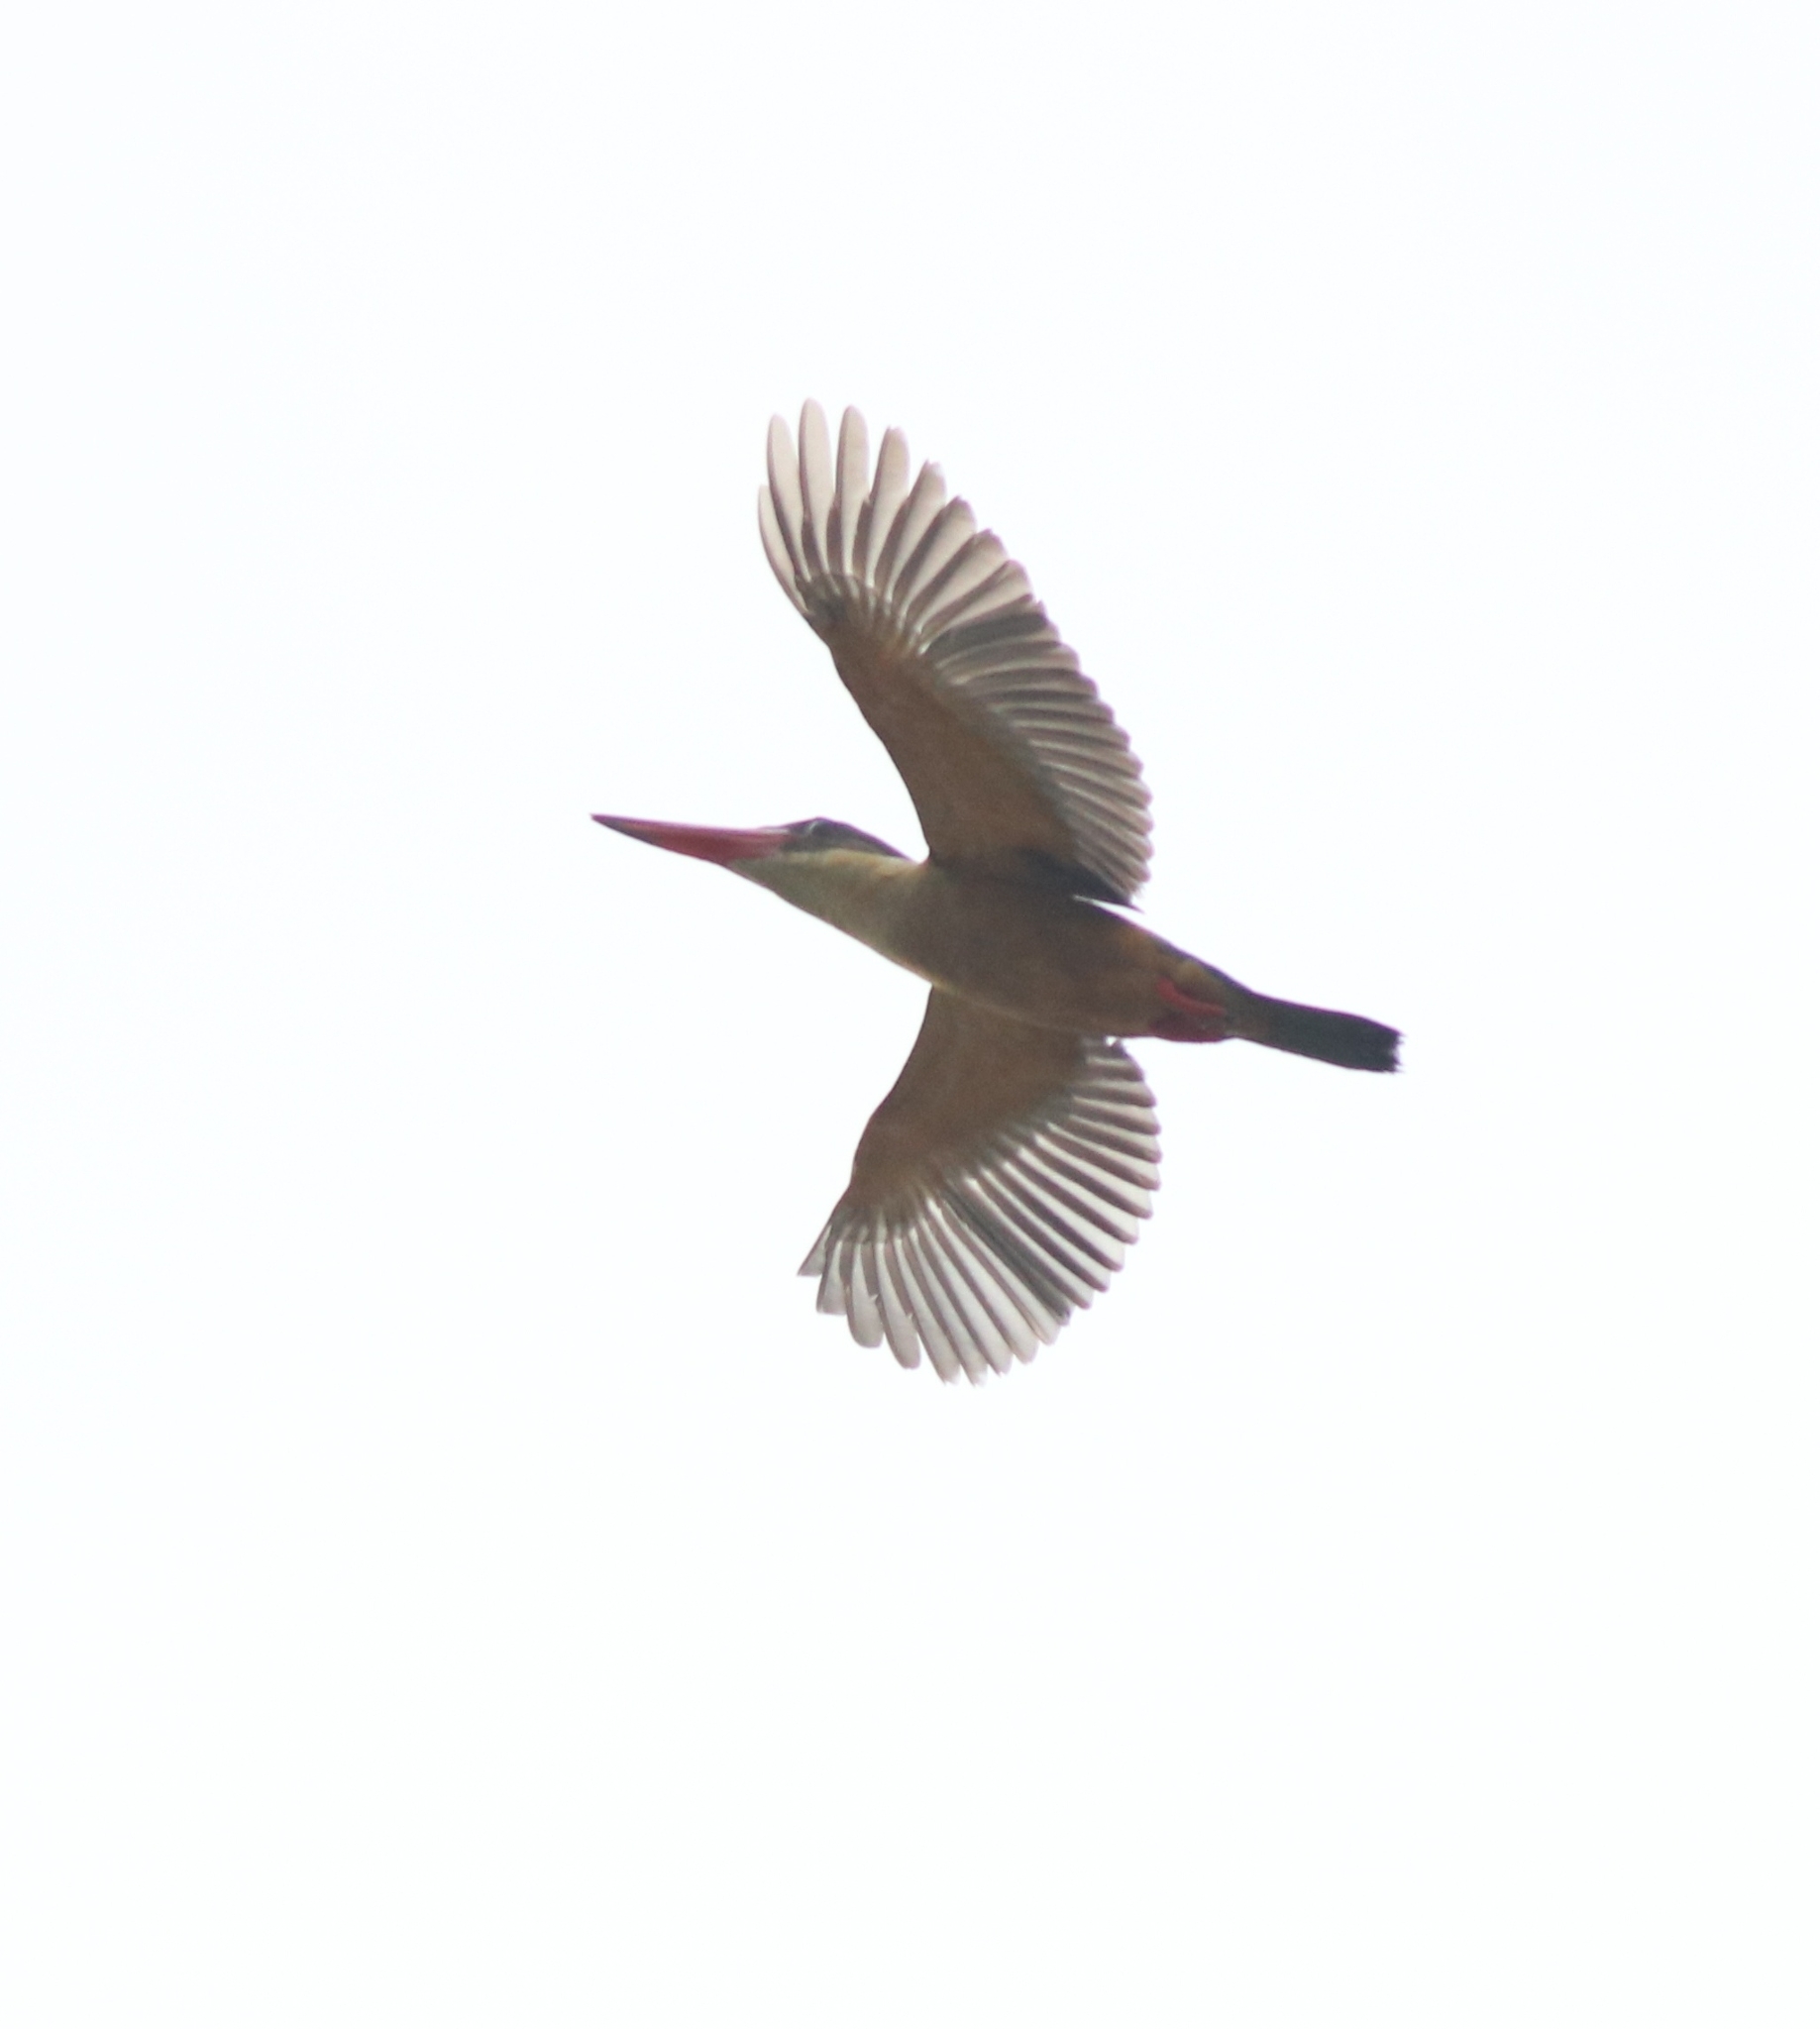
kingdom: Animalia
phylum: Chordata
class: Aves
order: Coraciiformes
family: Alcedinidae
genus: Pelargopsis
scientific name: Pelargopsis capensis
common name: Stork-billed kingfisher
